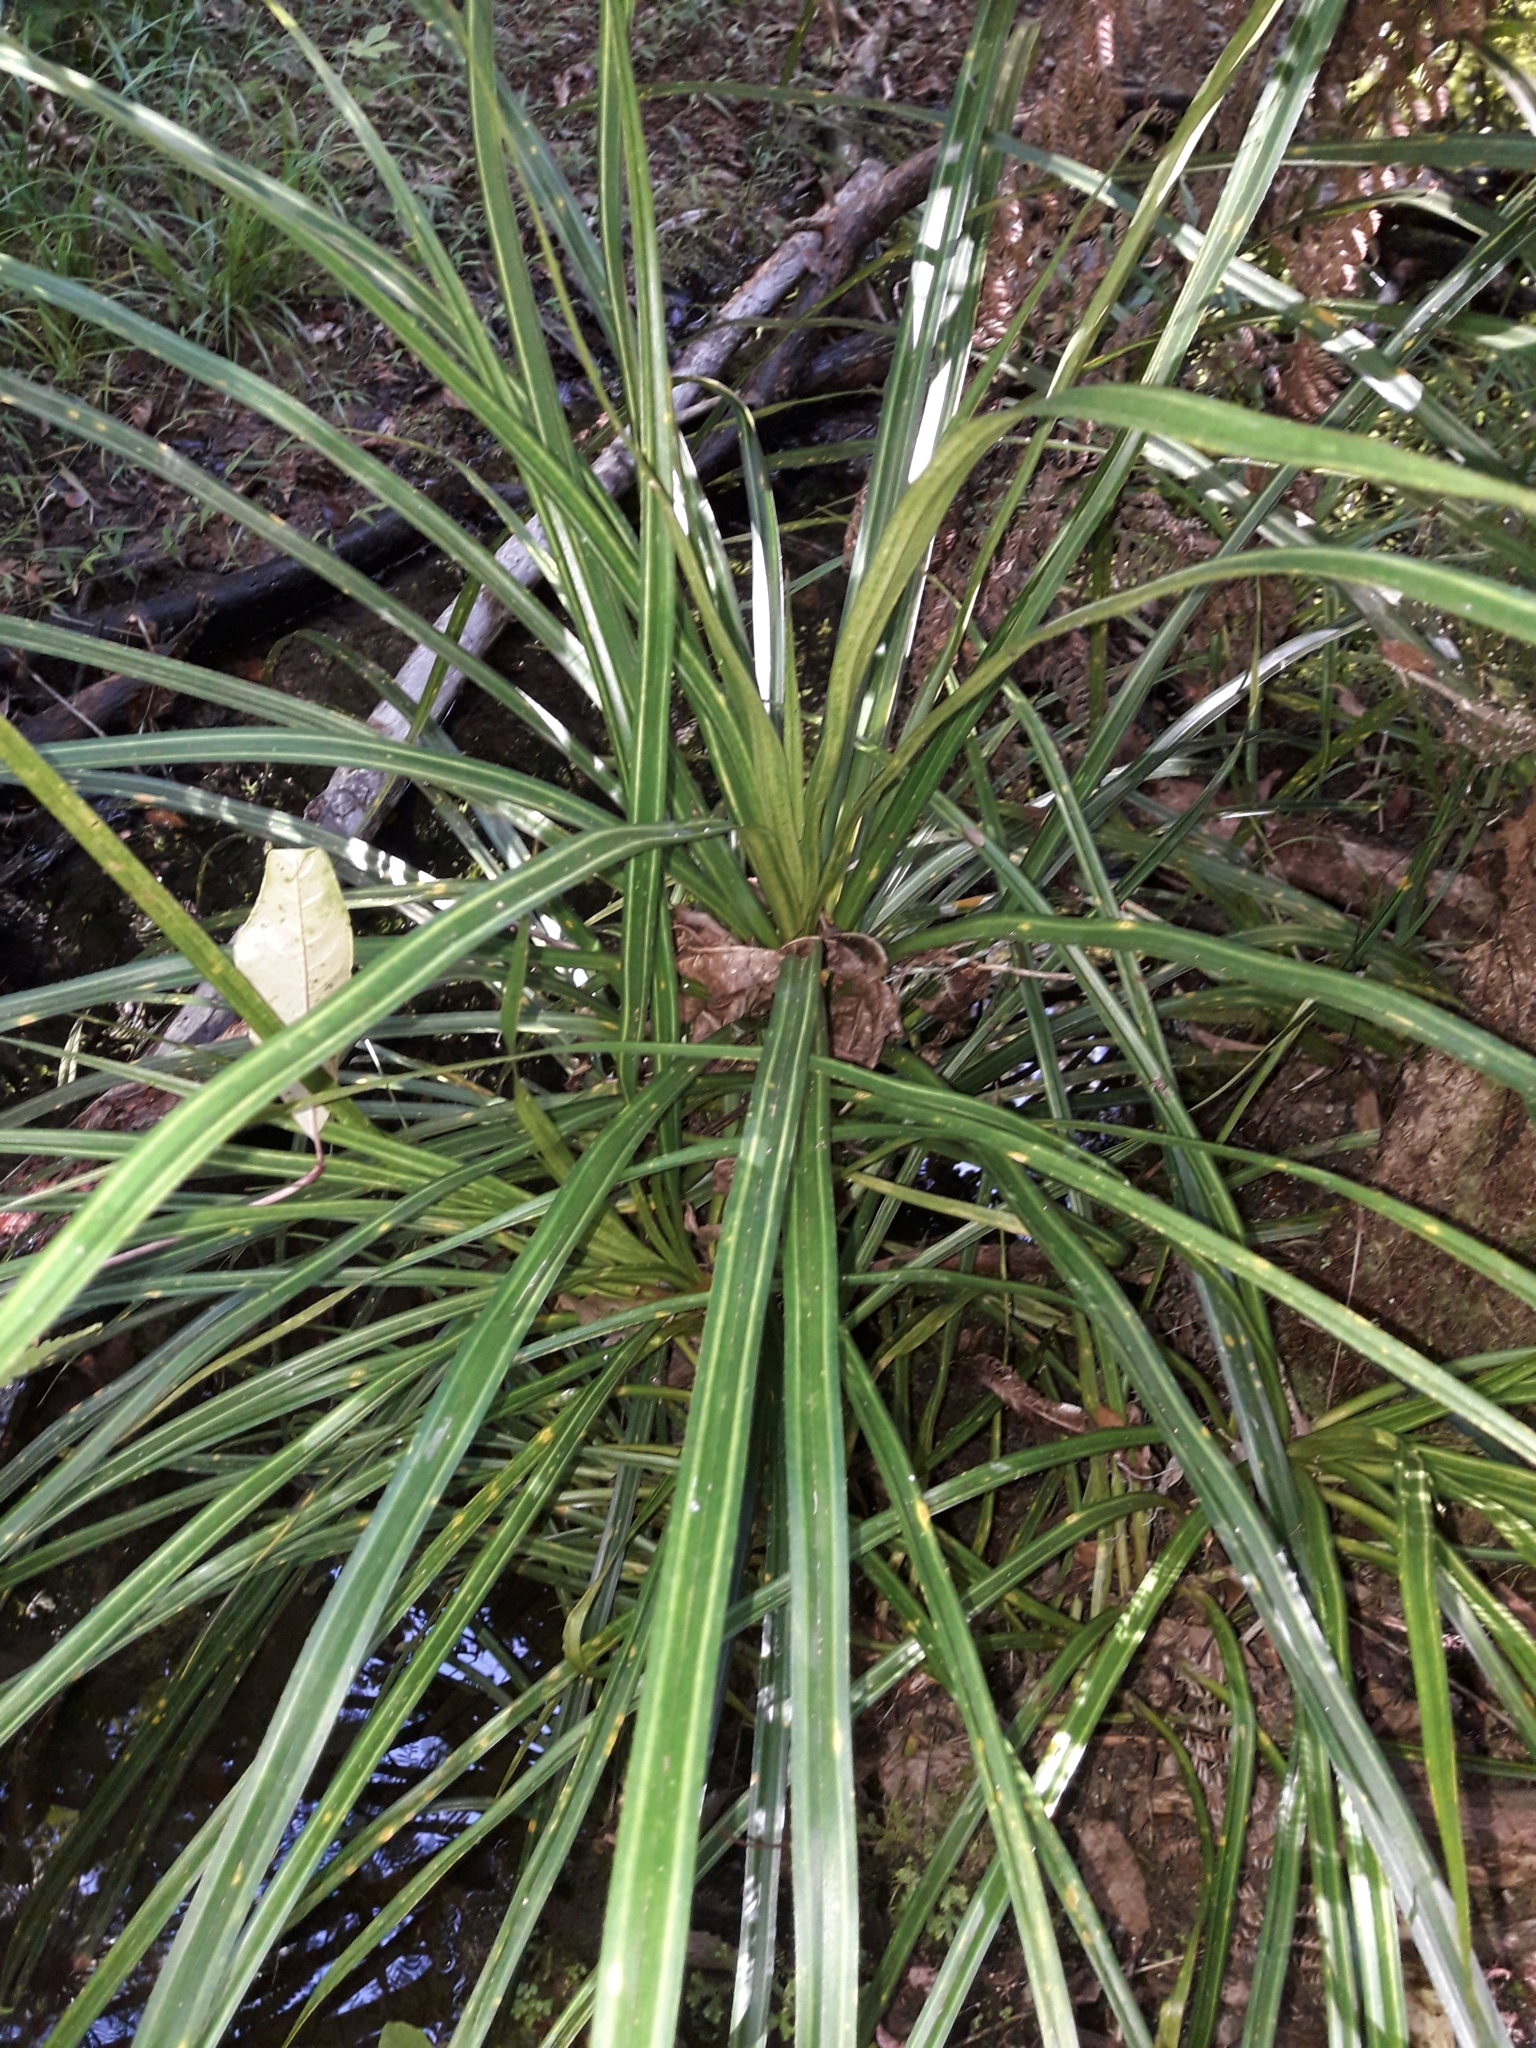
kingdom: Plantae
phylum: Tracheophyta
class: Liliopsida
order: Pandanales
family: Pandanaceae
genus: Freycinetia
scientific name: Freycinetia banksii
